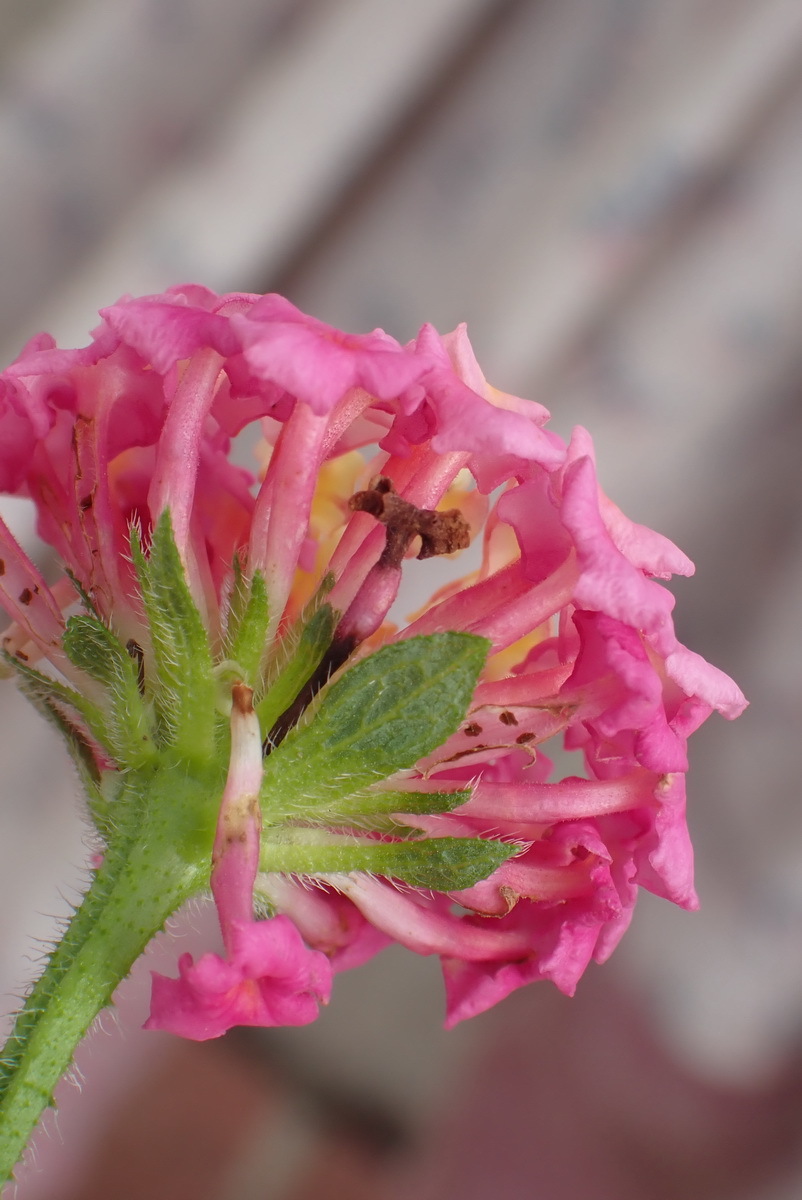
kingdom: Plantae
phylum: Tracheophyta
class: Magnoliopsida
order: Lamiales
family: Verbenaceae
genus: Lantana
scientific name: Lantana camara
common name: Lantana
